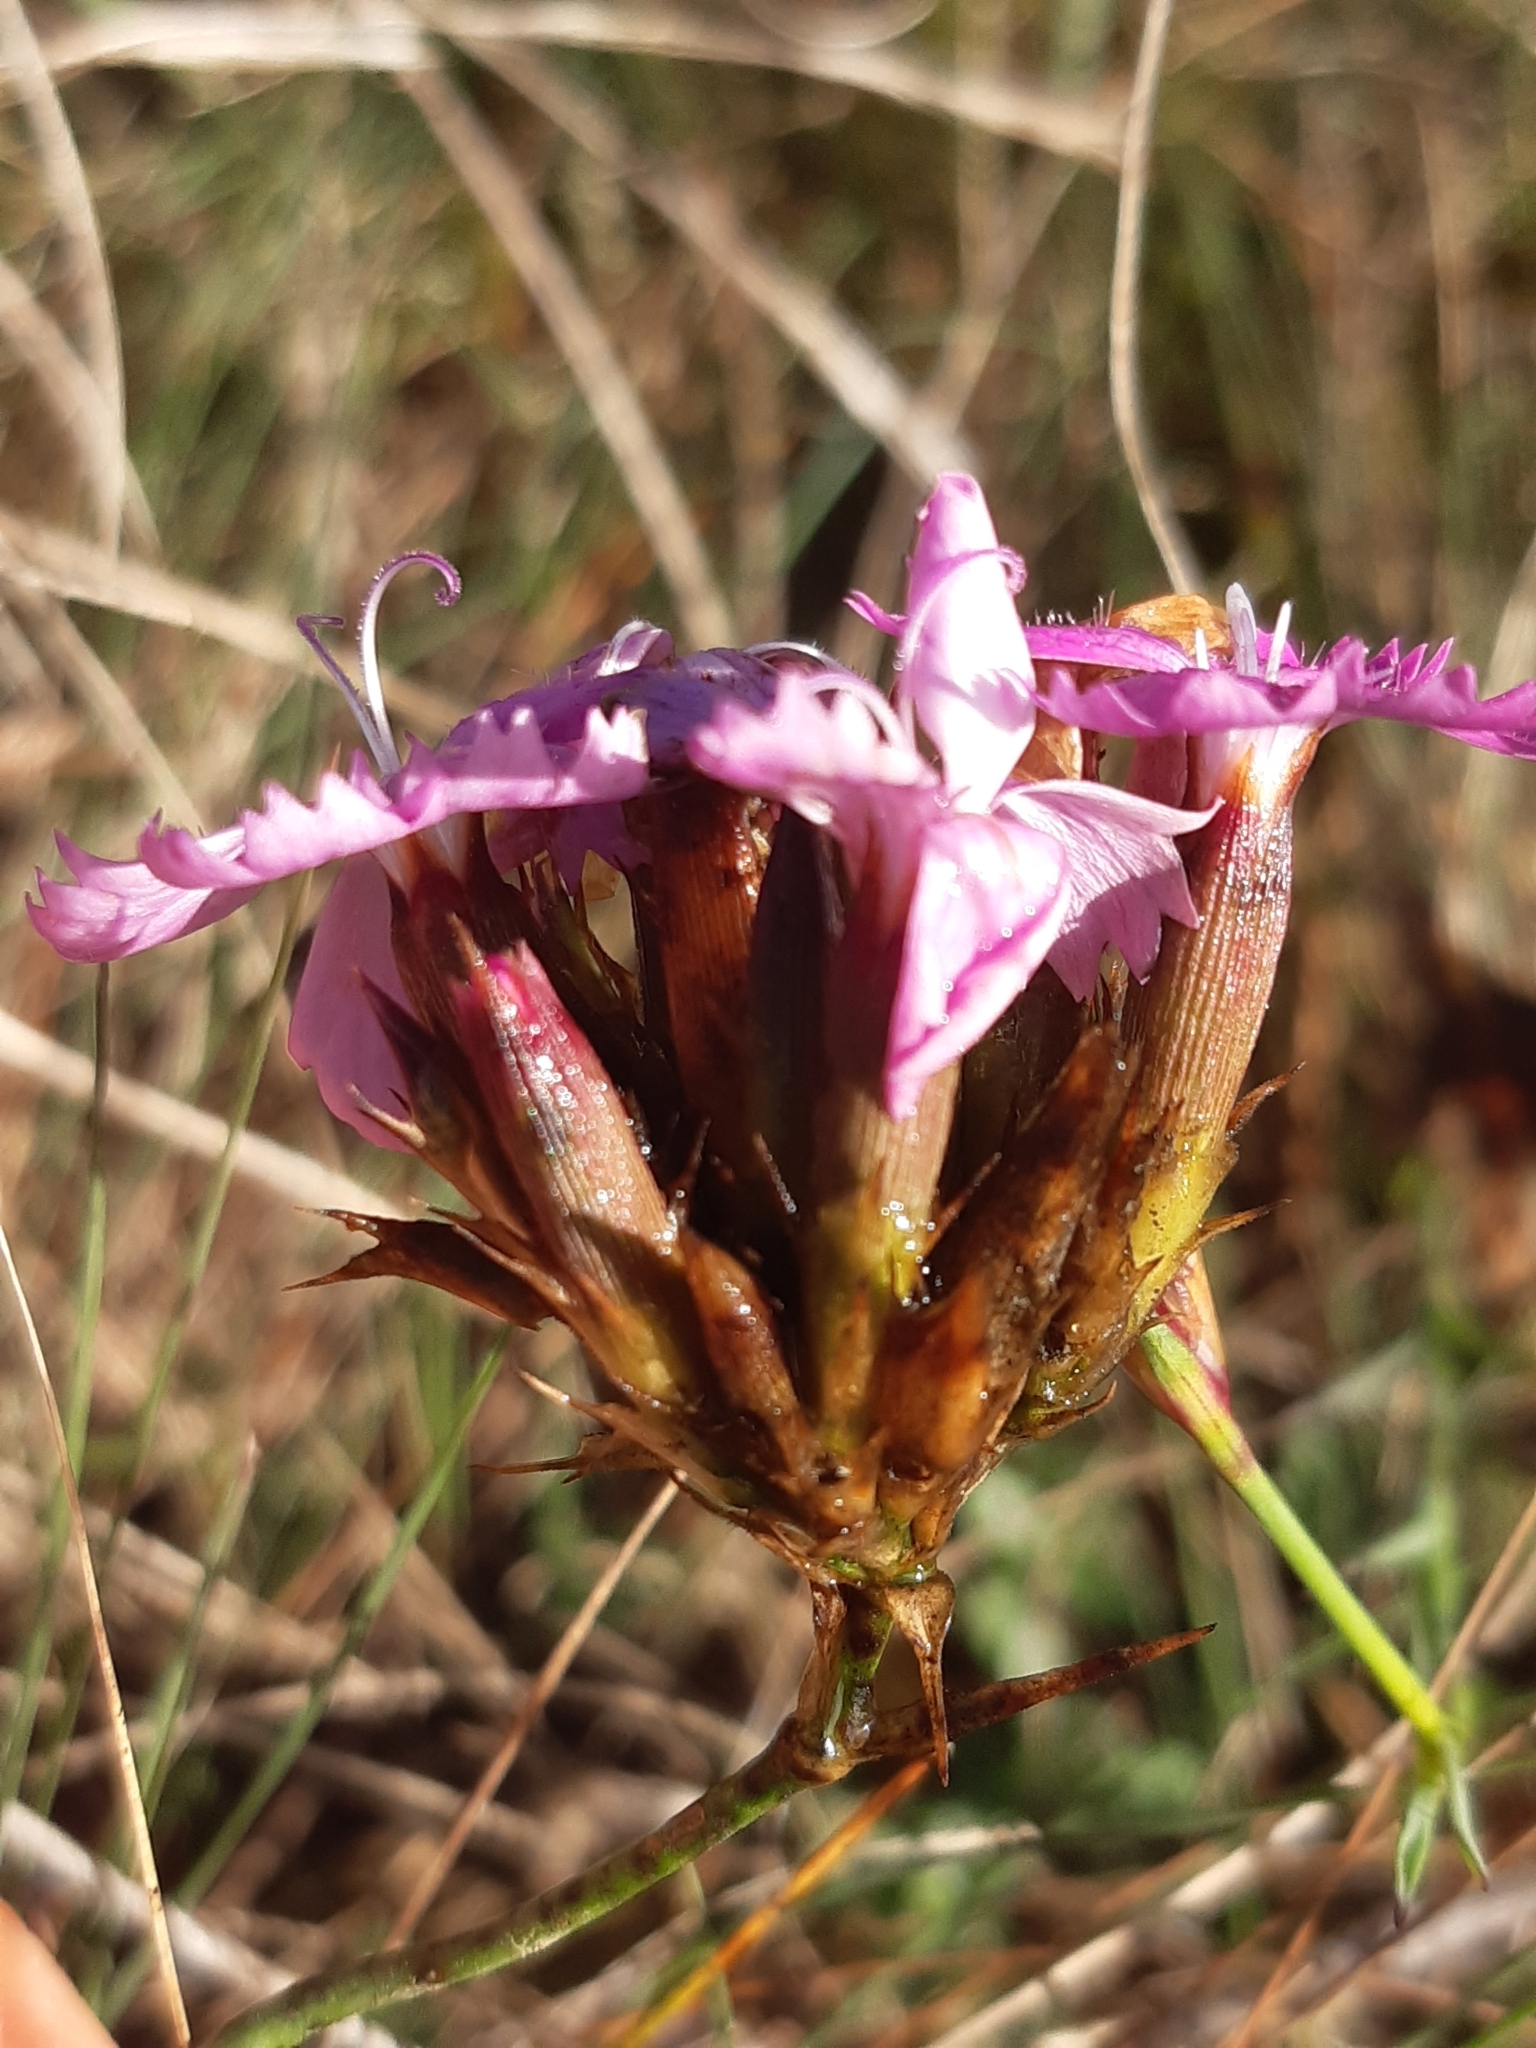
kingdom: Plantae
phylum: Tracheophyta
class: Magnoliopsida
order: Caryophyllales
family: Caryophyllaceae
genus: Dianthus
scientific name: Dianthus carthusianorum
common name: Carthusian pink
